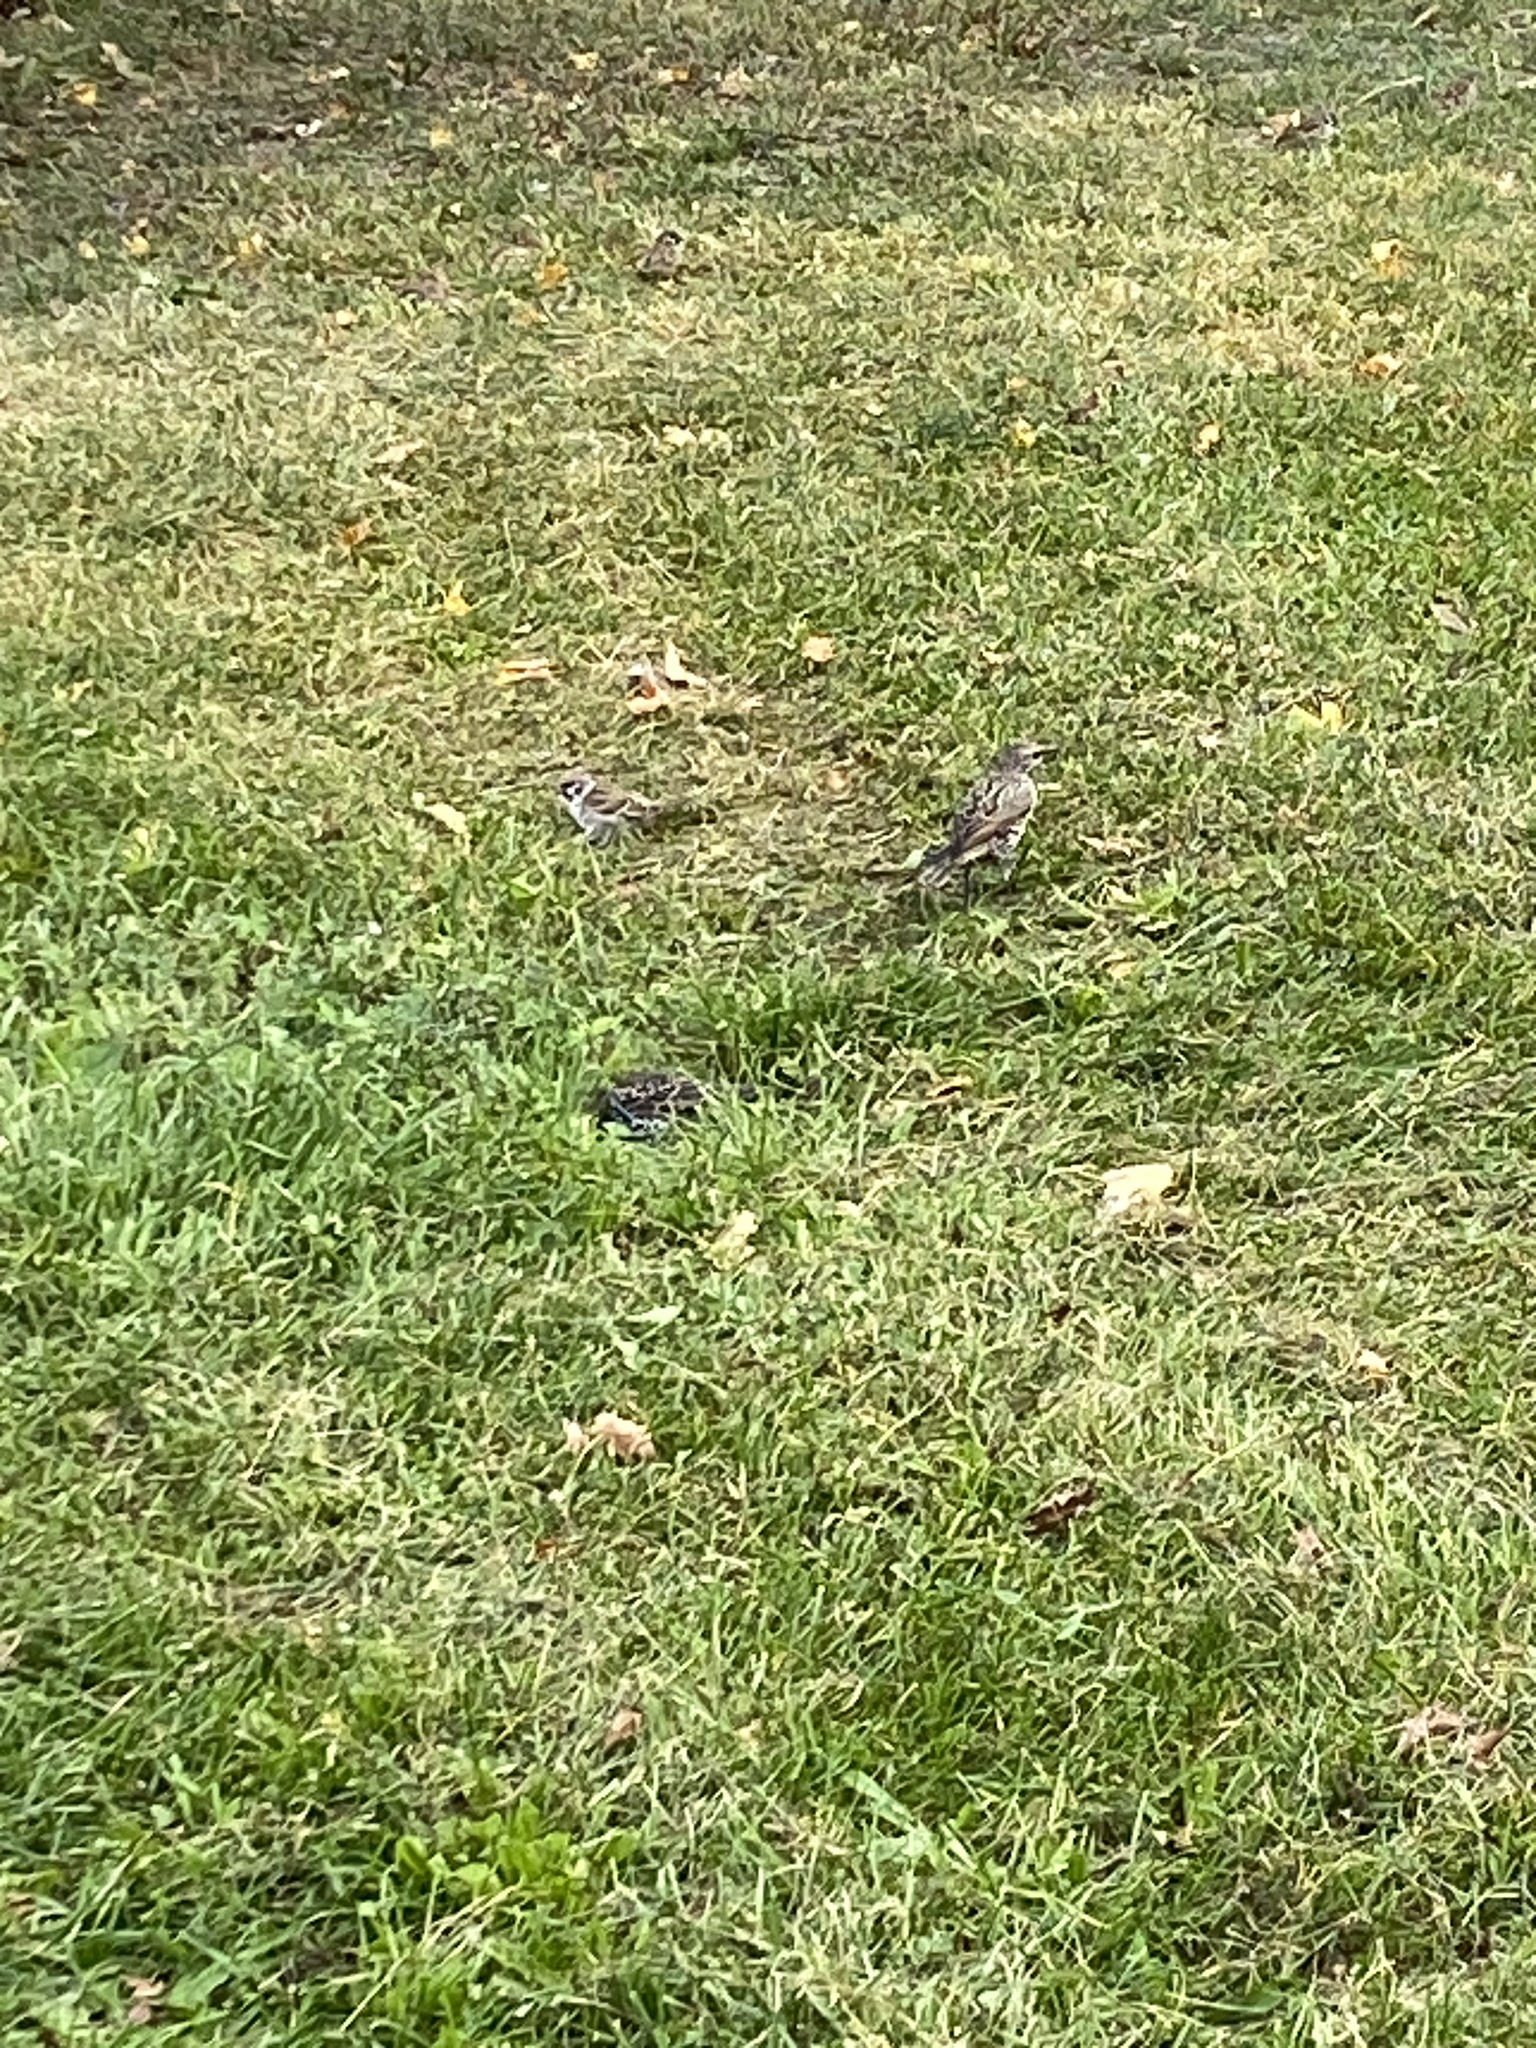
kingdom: Animalia
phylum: Chordata
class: Aves
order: Passeriformes
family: Sturnidae
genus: Sturnus
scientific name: Sturnus vulgaris
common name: Common starling
